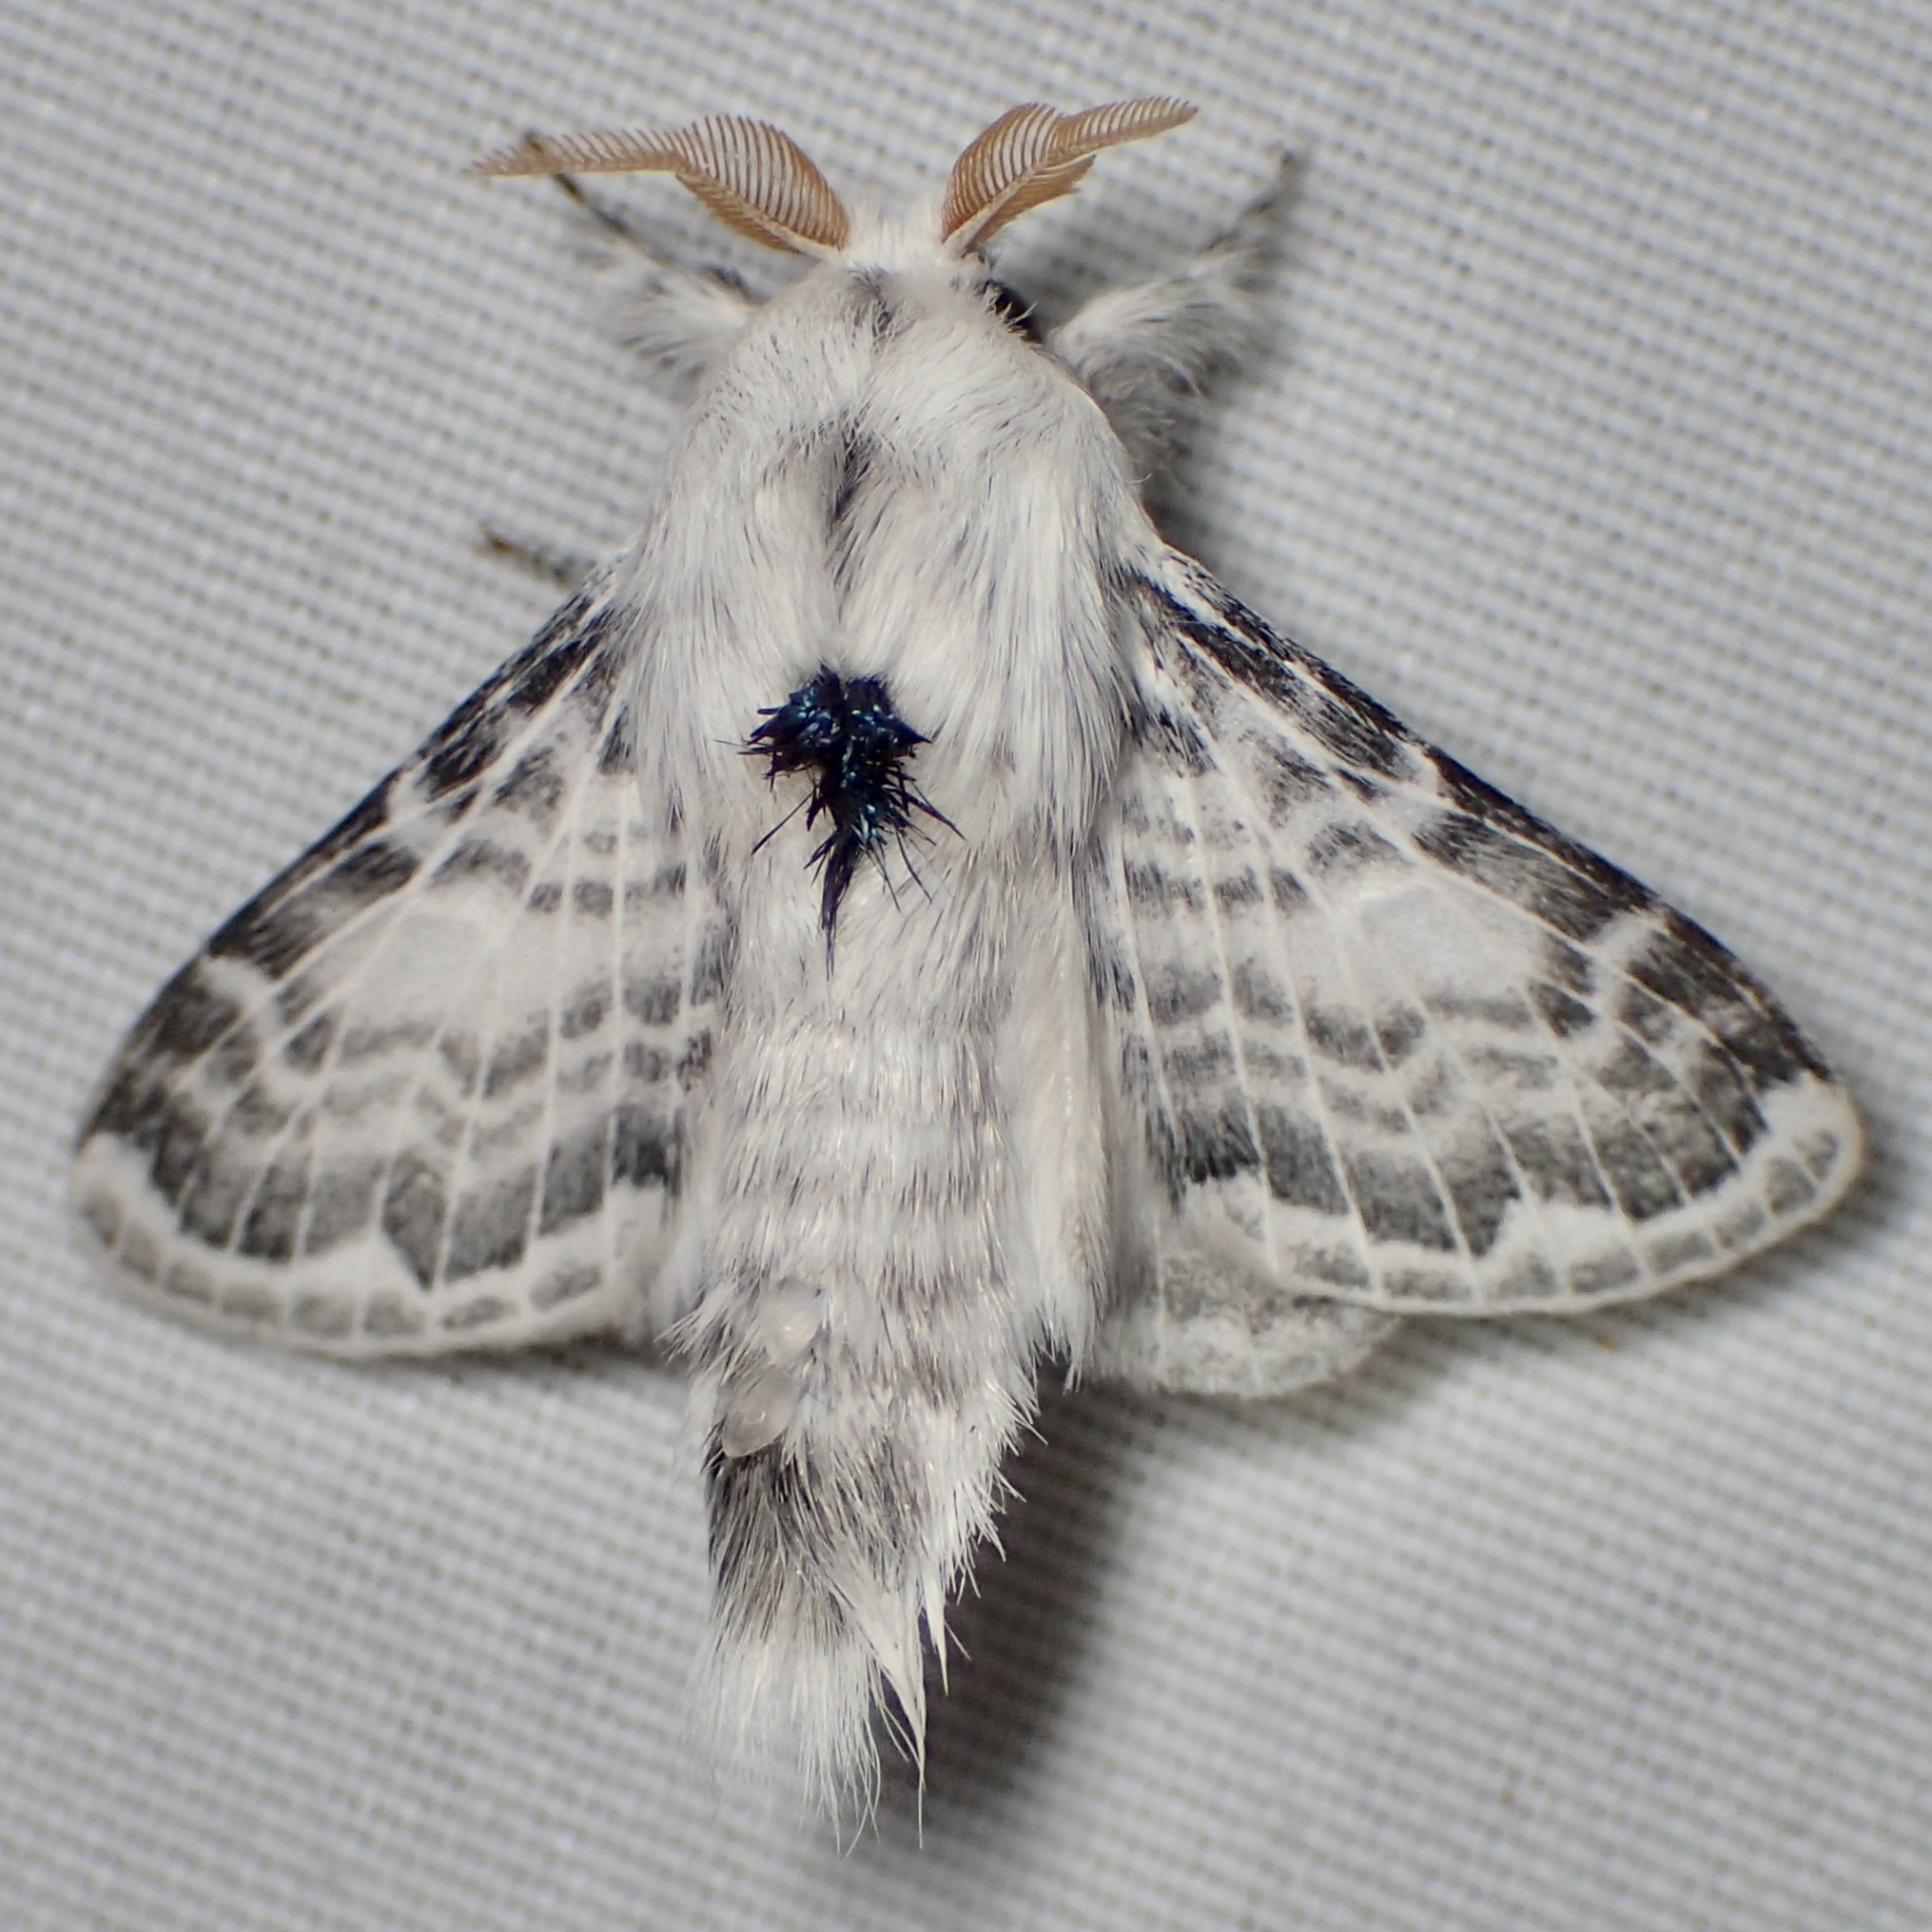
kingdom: Animalia
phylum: Arthropoda
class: Insecta
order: Lepidoptera
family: Lasiocampidae
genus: Apotolype
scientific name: Apotolype brevicrista
